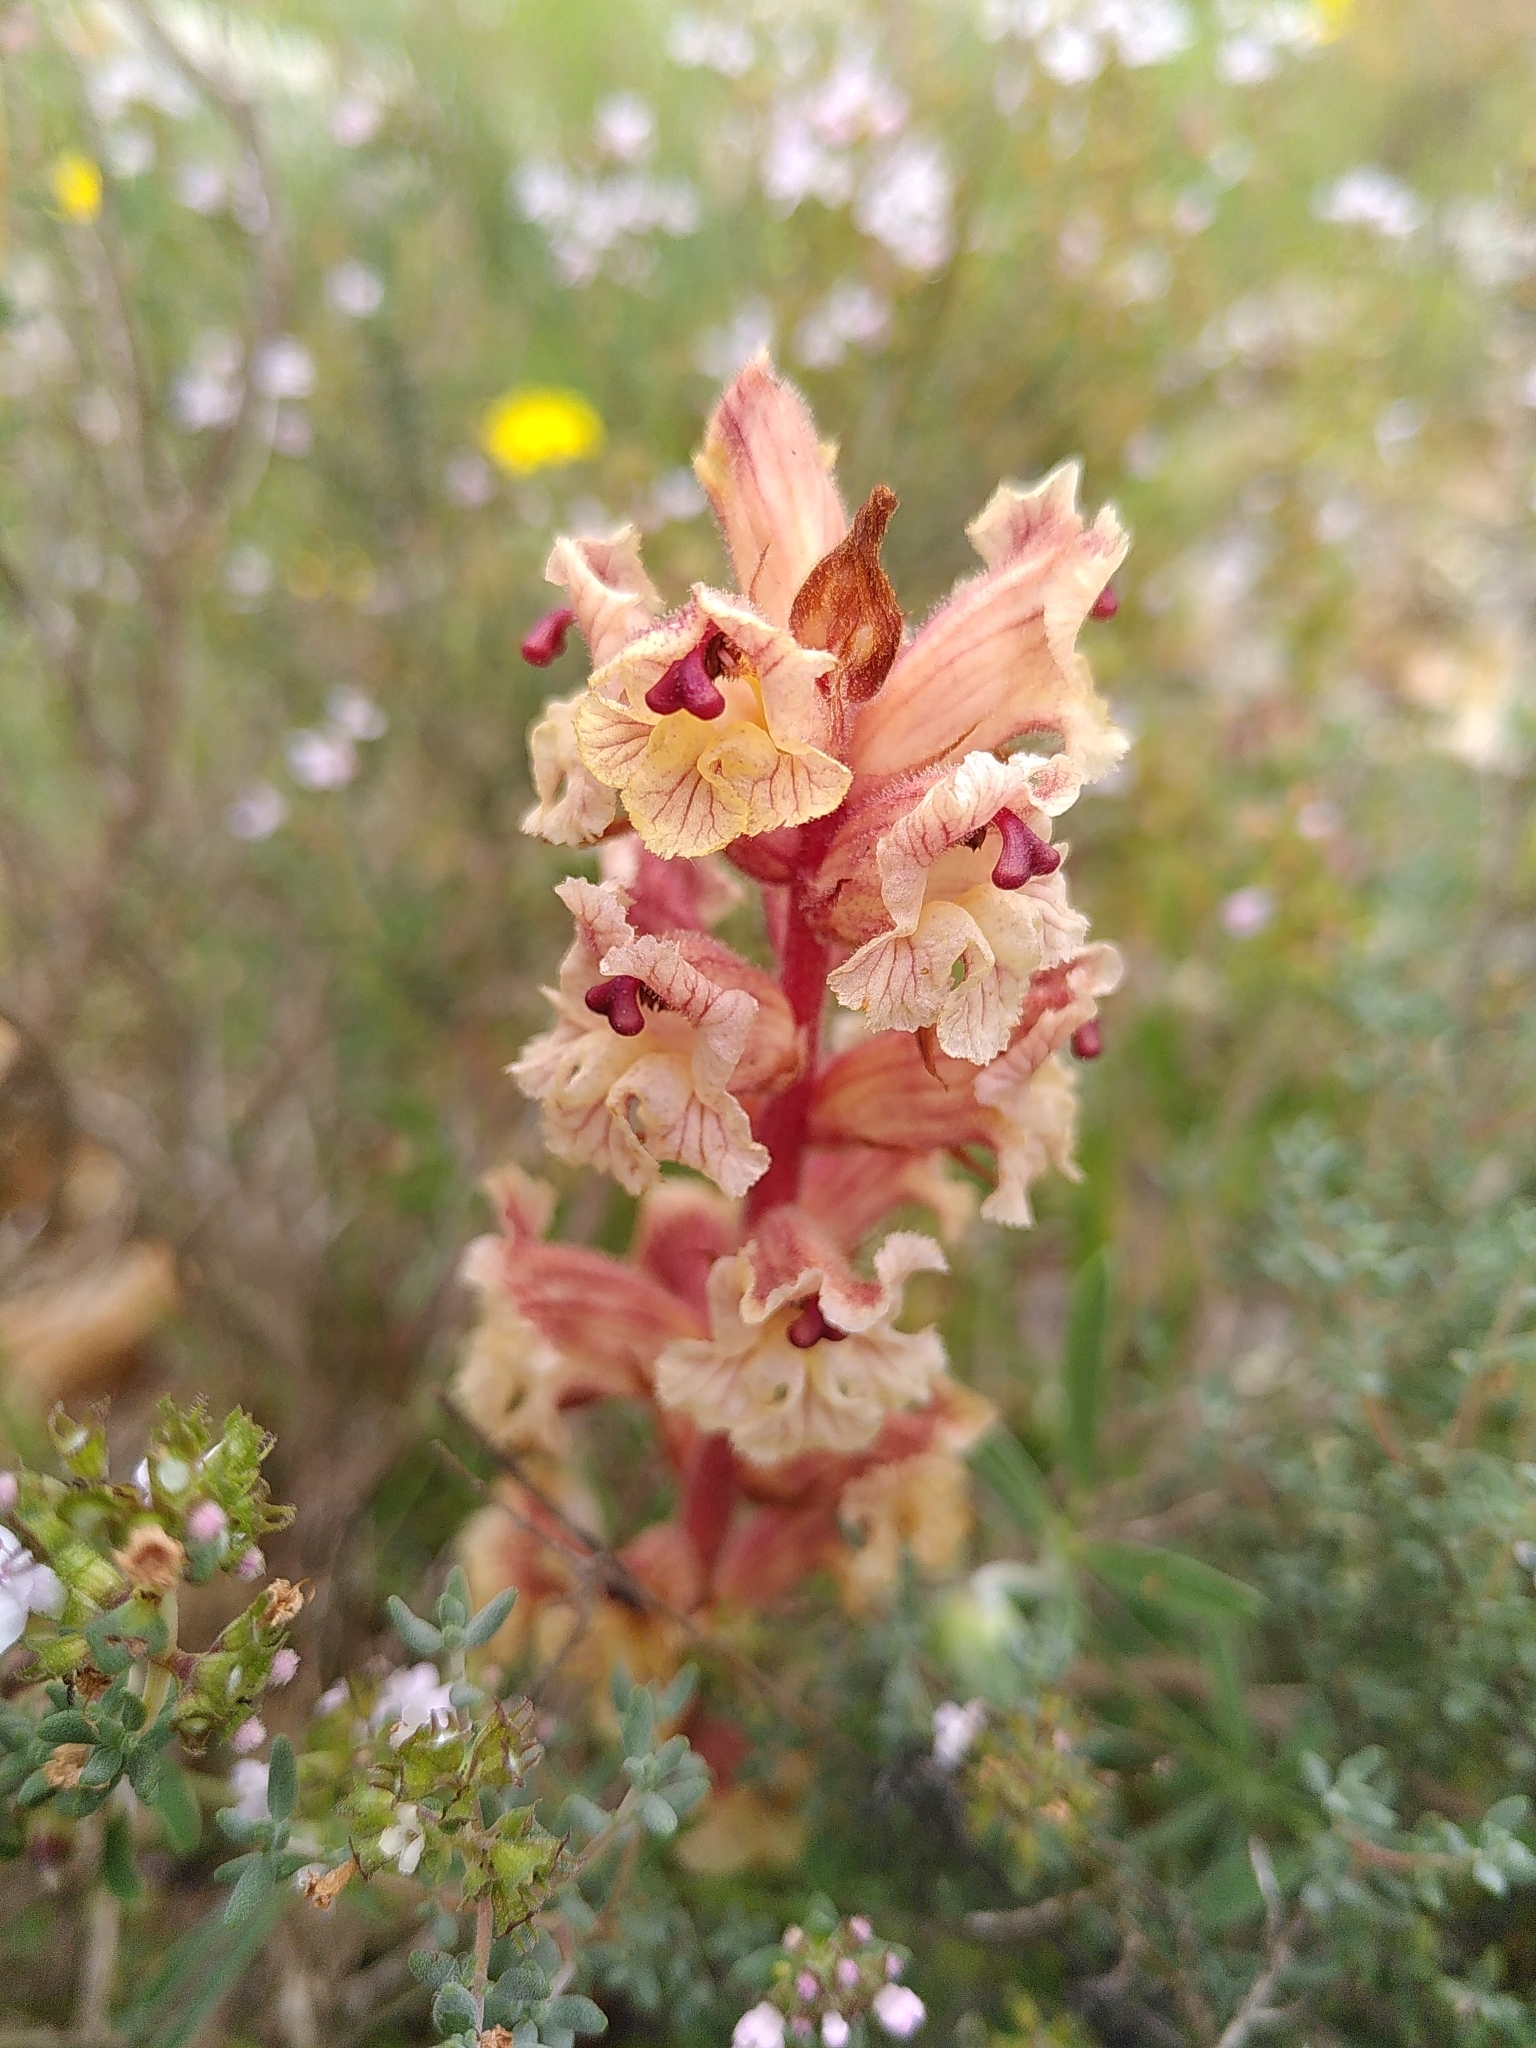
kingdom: Plantae
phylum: Tracheophyta
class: Magnoliopsida
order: Lamiales
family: Orobanchaceae
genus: Orobanche
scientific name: Orobanche alba
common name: Thyme broomrape
